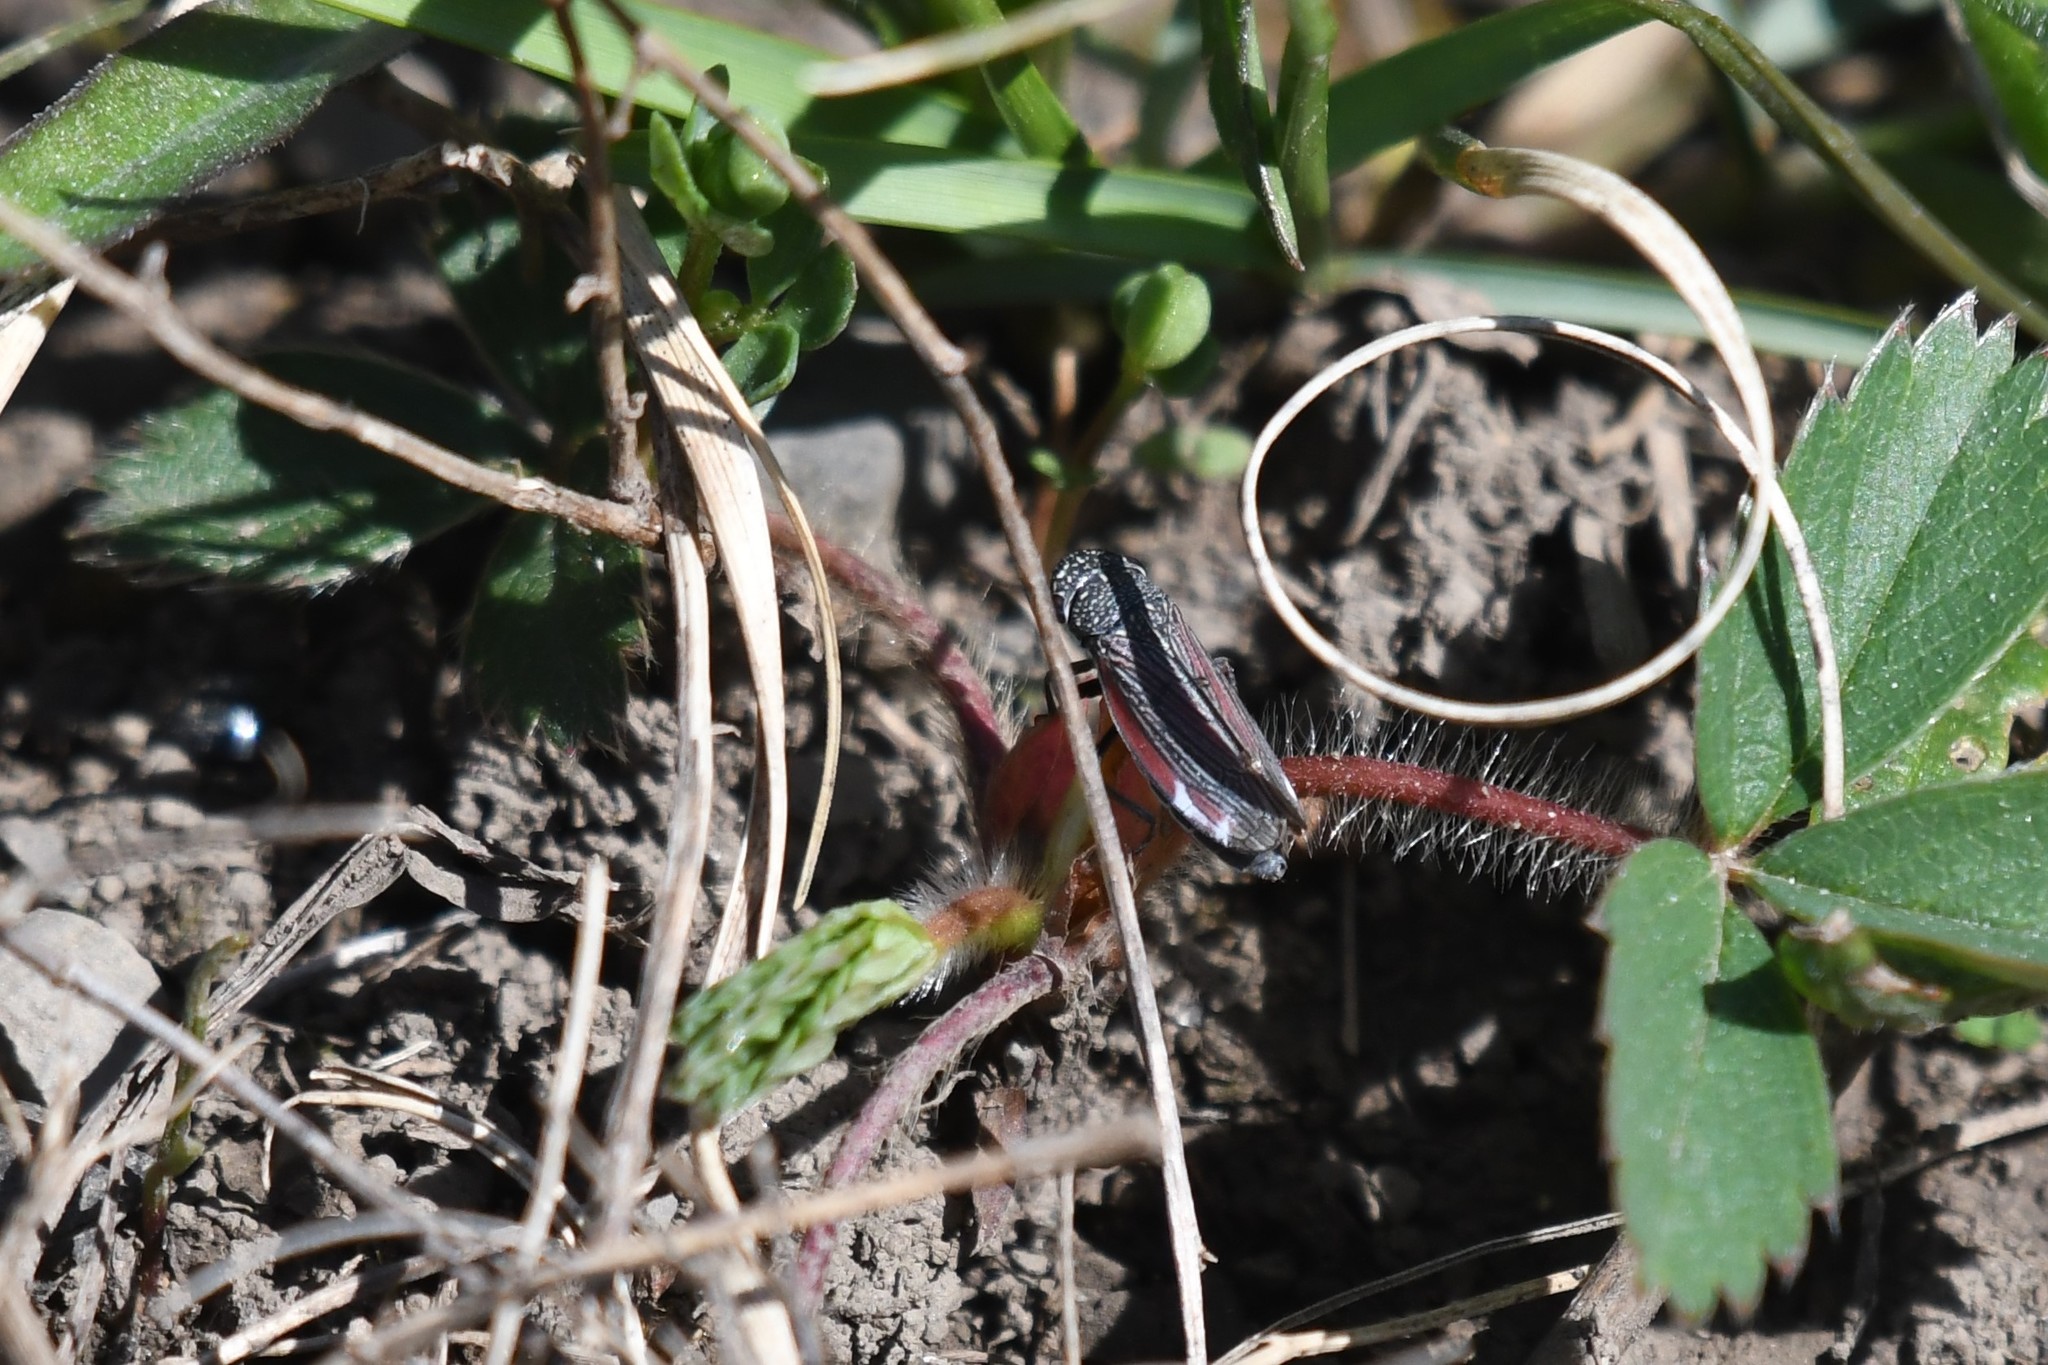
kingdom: Animalia
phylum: Arthropoda
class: Insecta
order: Hemiptera
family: Cicadellidae
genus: Cuerna
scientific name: Cuerna striata
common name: Striped leafhopper
